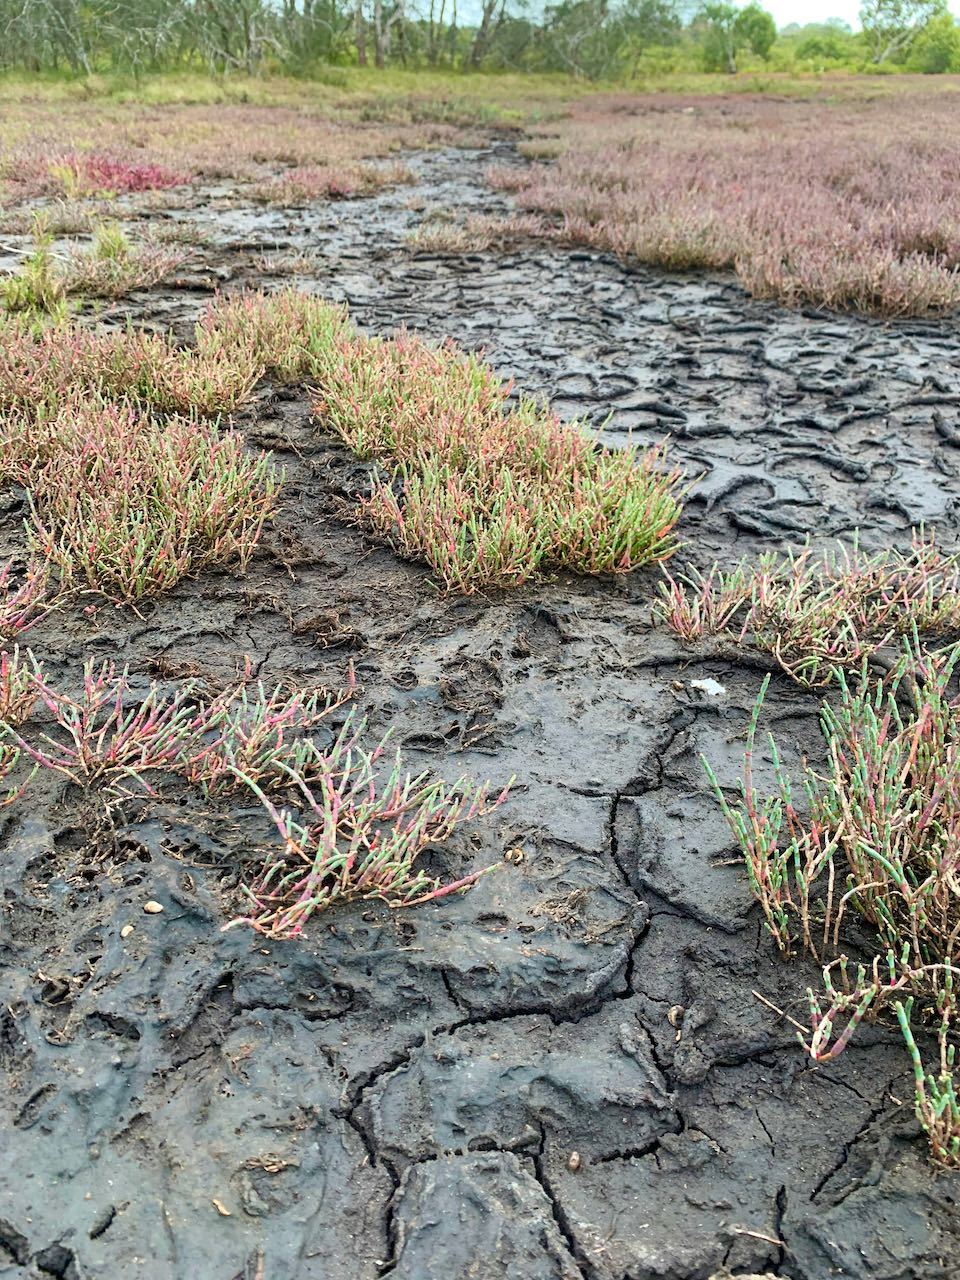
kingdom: Plantae
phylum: Tracheophyta
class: Magnoliopsida
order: Caryophyllales
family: Amaranthaceae
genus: Salicornia
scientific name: Salicornia quinqueflora
